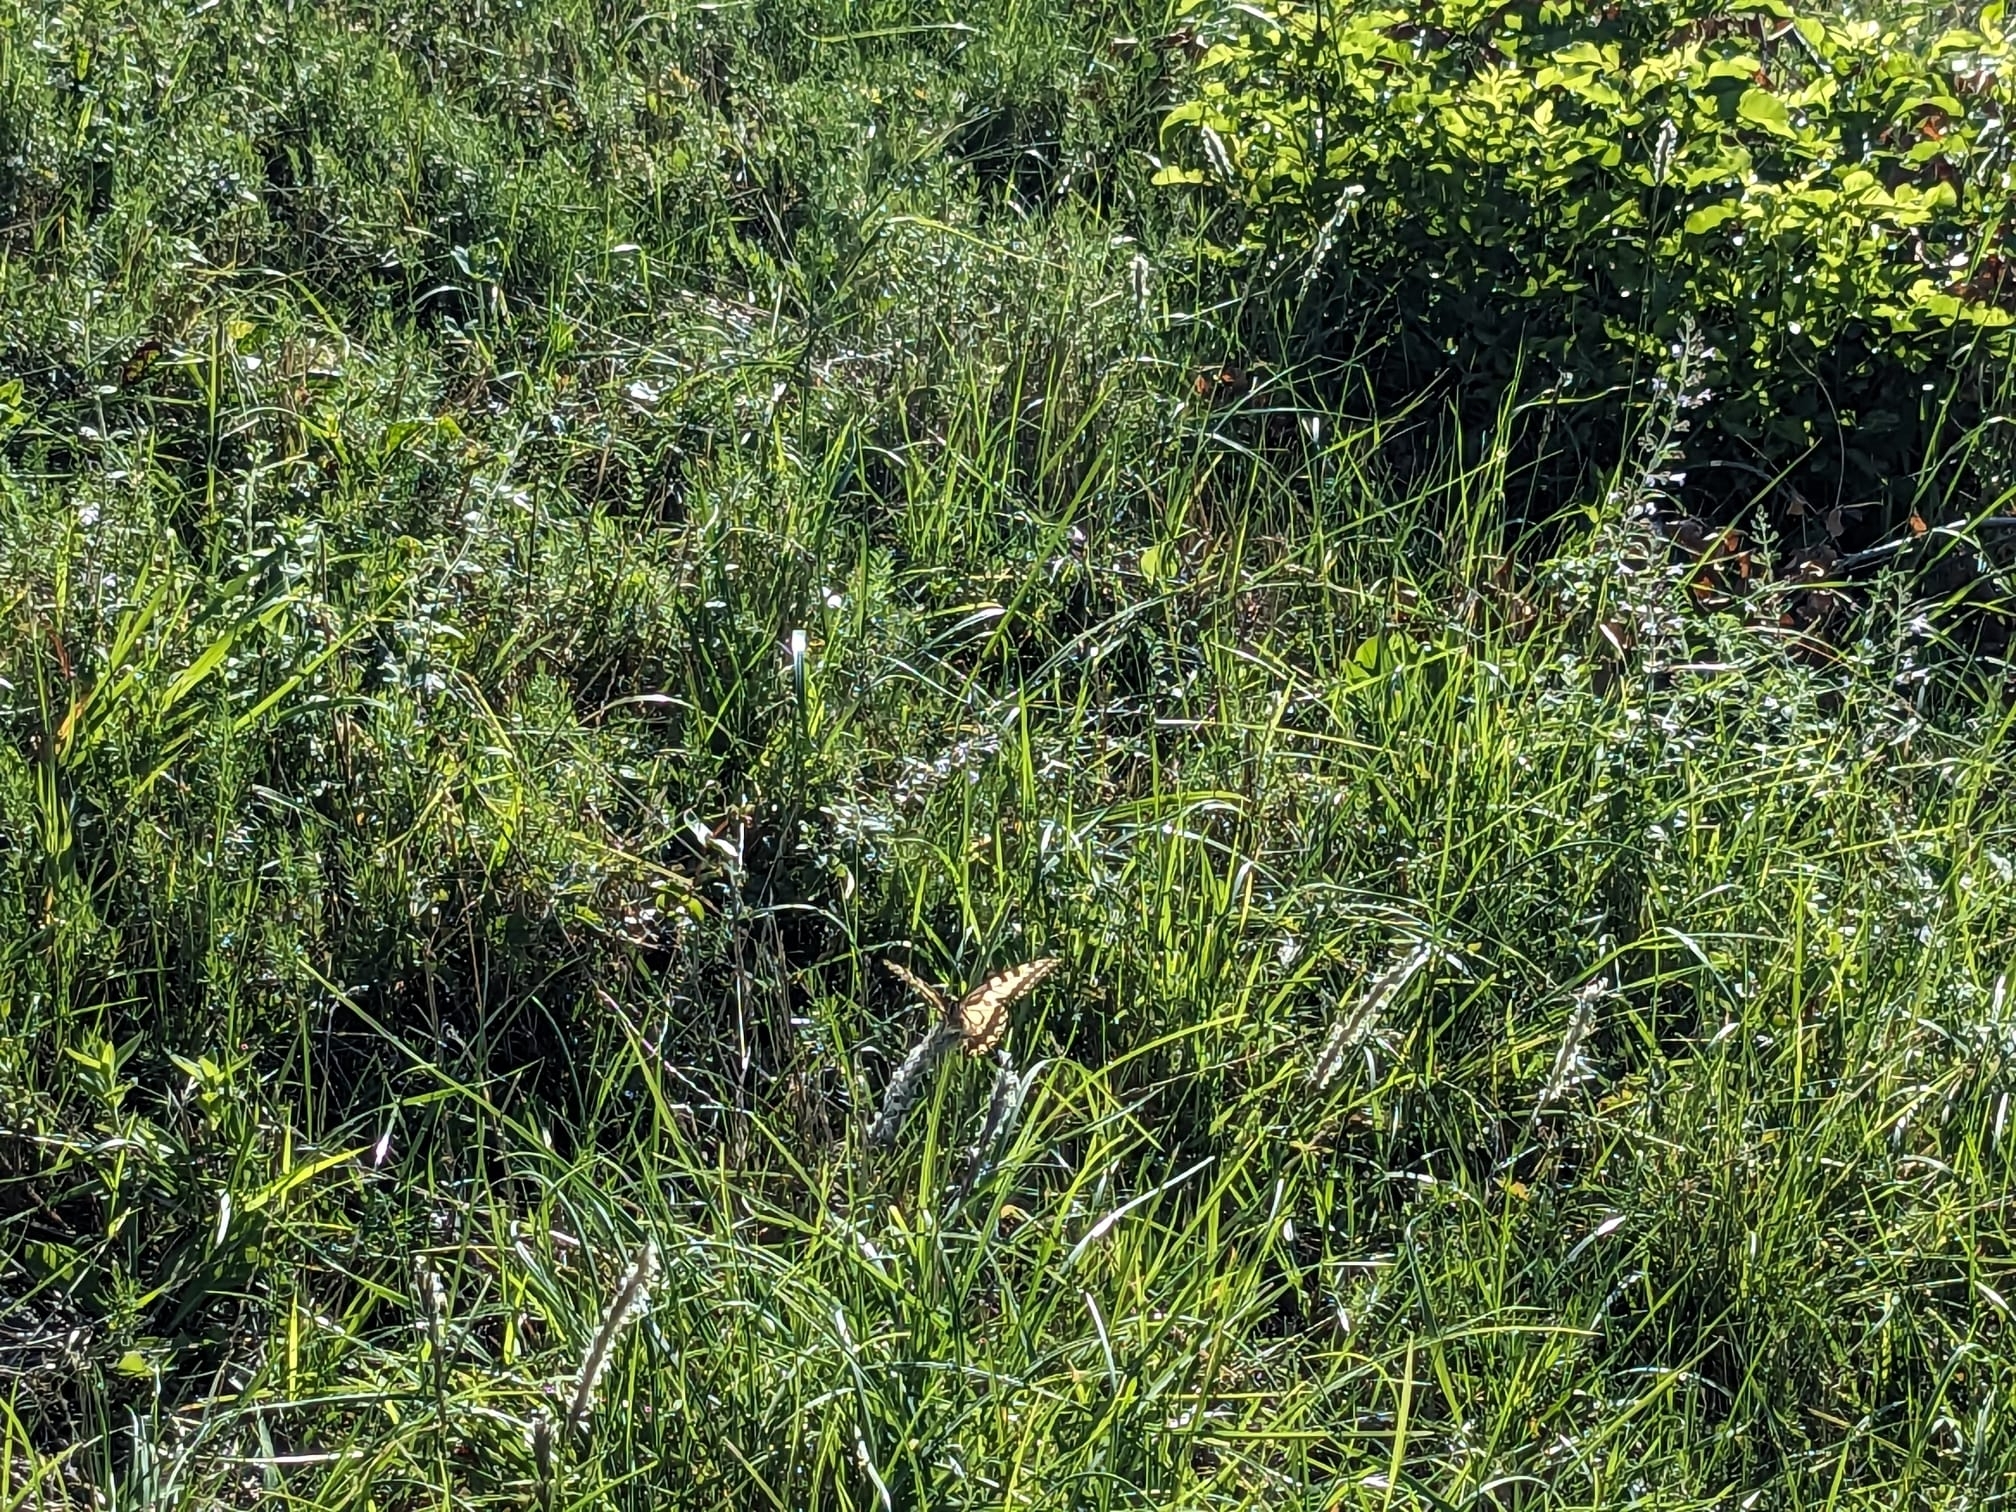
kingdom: Animalia
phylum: Arthropoda
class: Insecta
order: Lepidoptera
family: Papilionidae
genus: Papilio
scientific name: Papilio machaon
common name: Swallowtail
